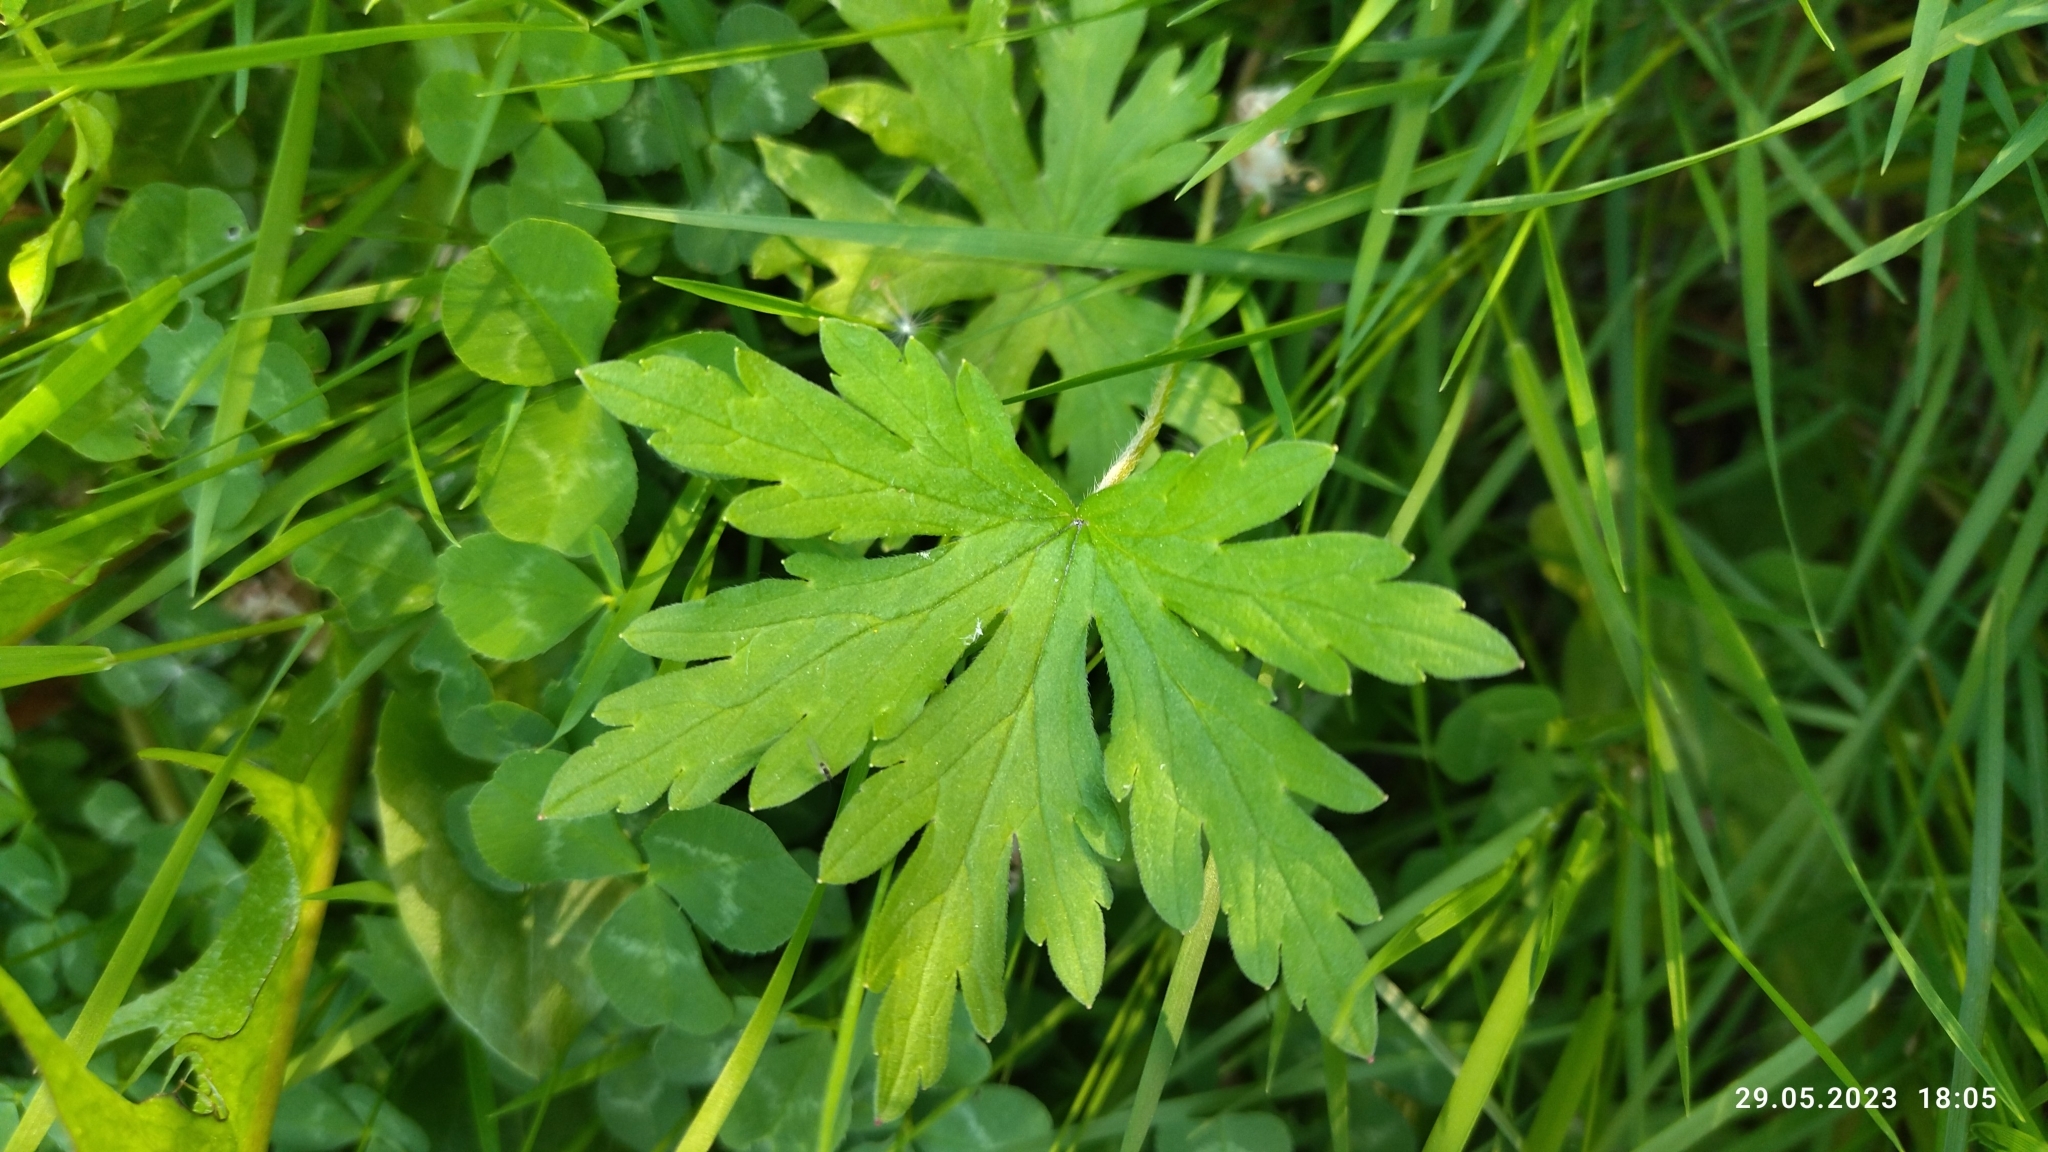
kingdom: Plantae
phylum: Tracheophyta
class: Magnoliopsida
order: Geraniales
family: Geraniaceae
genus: Geranium
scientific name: Geranium sibiricum
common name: Siberian crane's-bill
